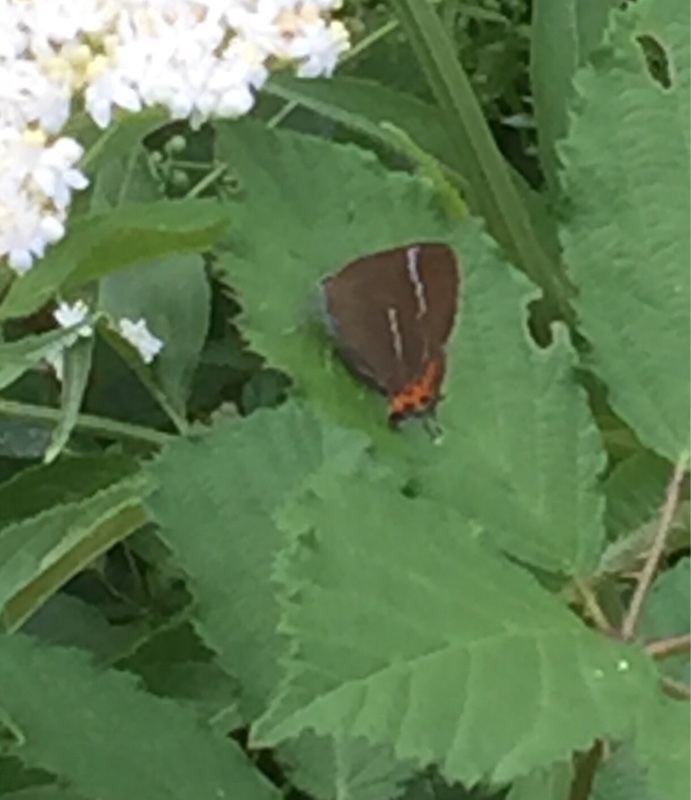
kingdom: Animalia
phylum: Arthropoda
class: Insecta
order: Lepidoptera
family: Lycaenidae
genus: Satyrium
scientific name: Satyrium w-album
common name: White-letter hairstreak
